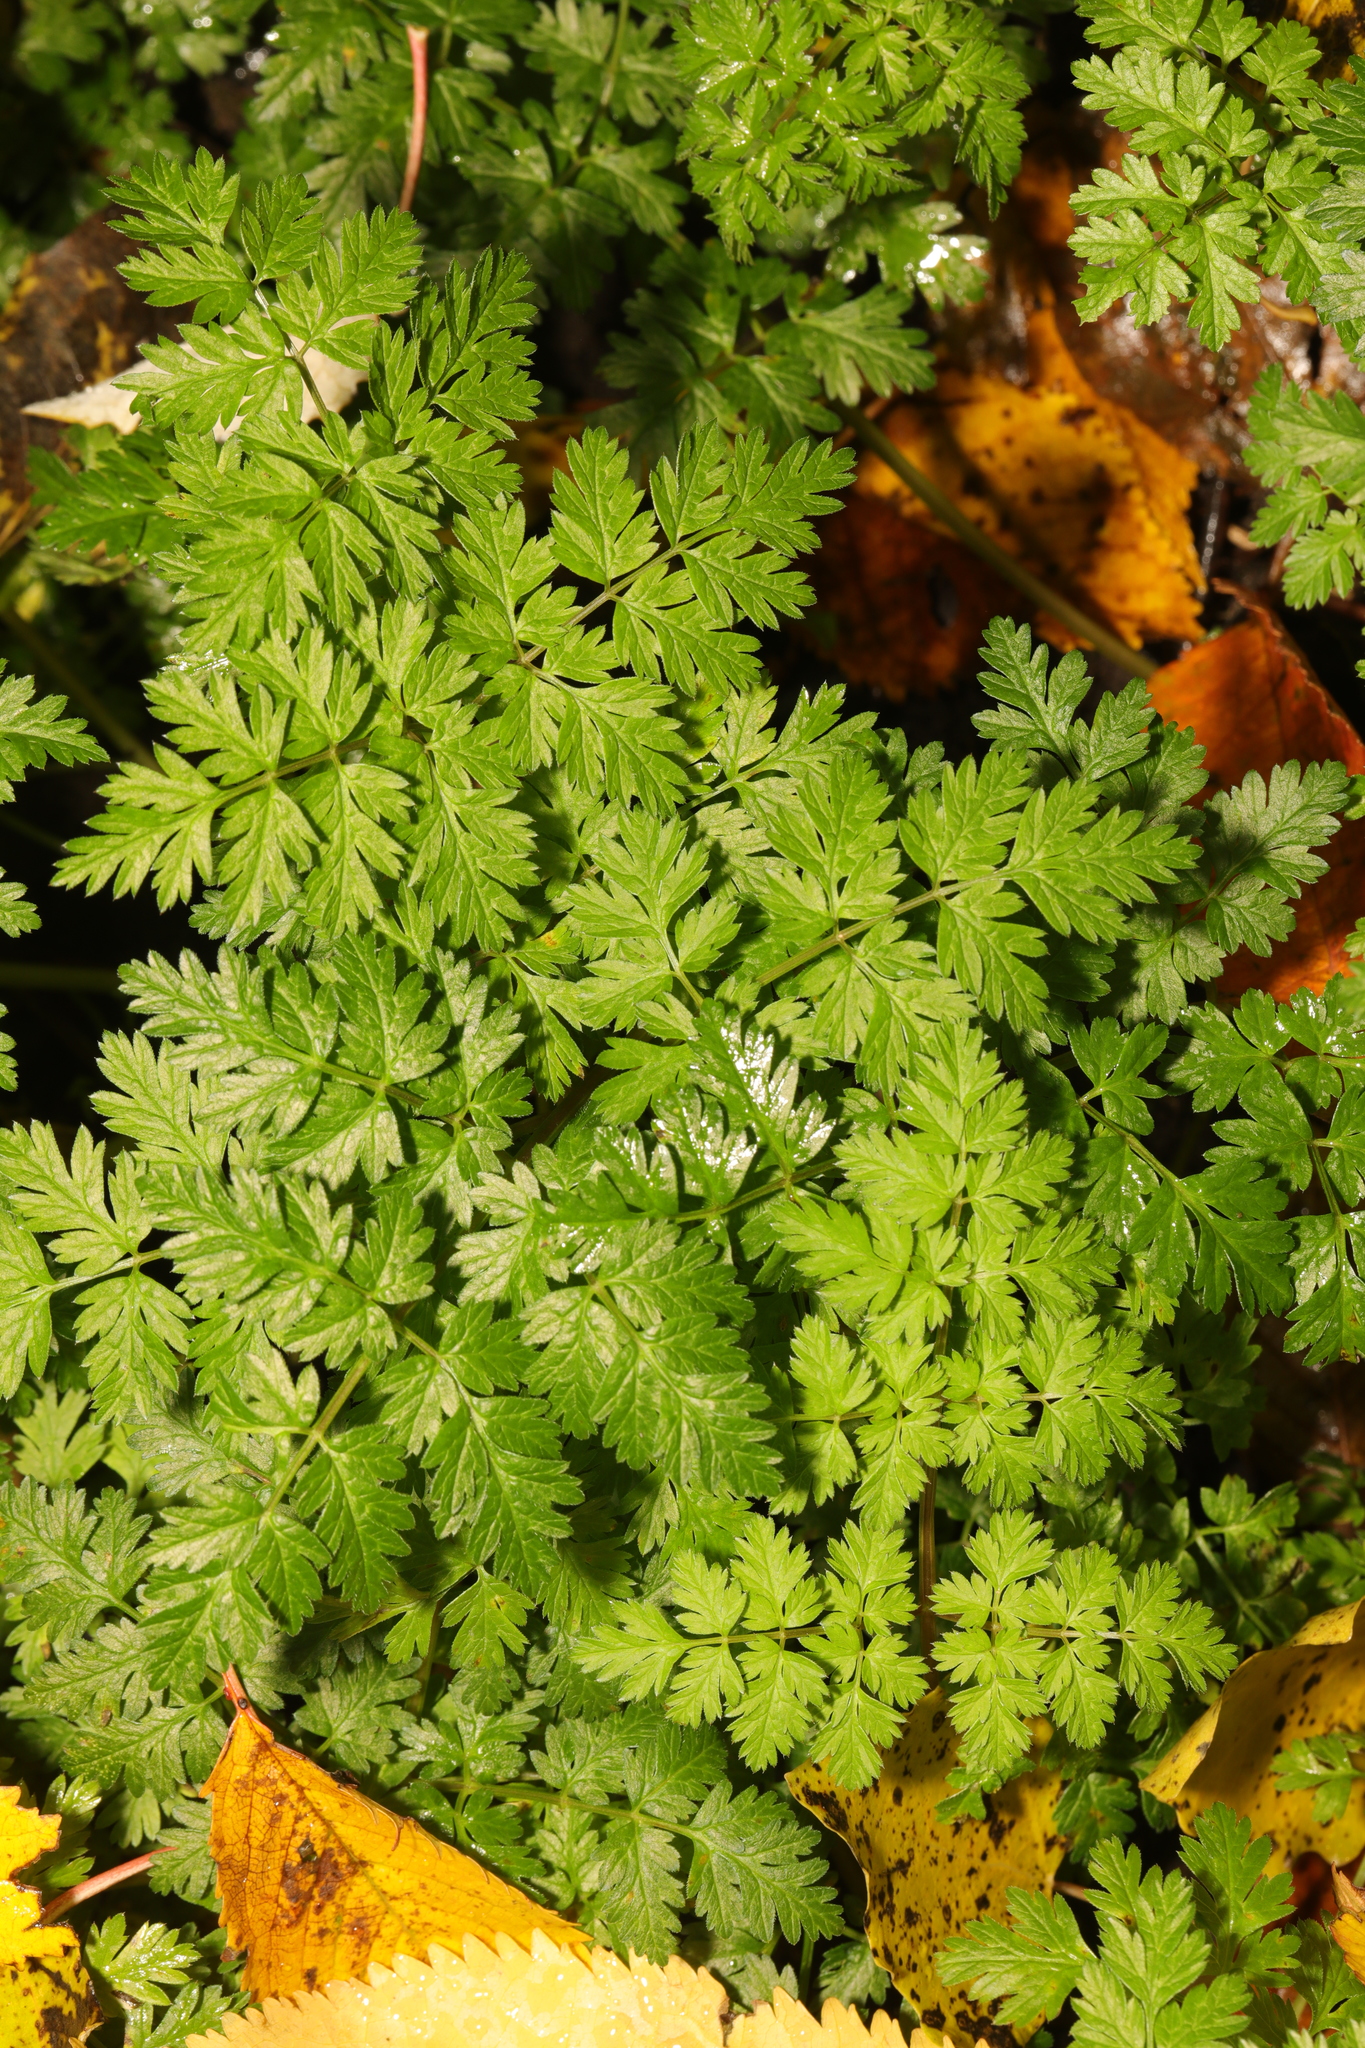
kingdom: Plantae
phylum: Tracheophyta
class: Magnoliopsida
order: Apiales
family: Apiaceae
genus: Anthriscus
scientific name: Anthriscus sylvestris
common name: Cow parsley
